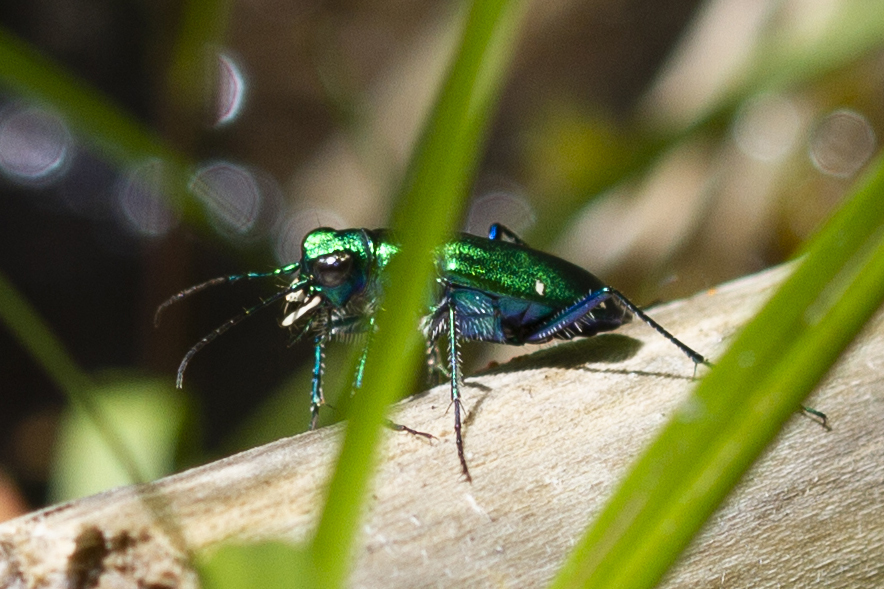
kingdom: Animalia
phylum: Arthropoda
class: Insecta
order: Coleoptera
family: Carabidae
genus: Cicindela
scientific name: Cicindela sexguttata
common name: Six-spotted tiger beetle
